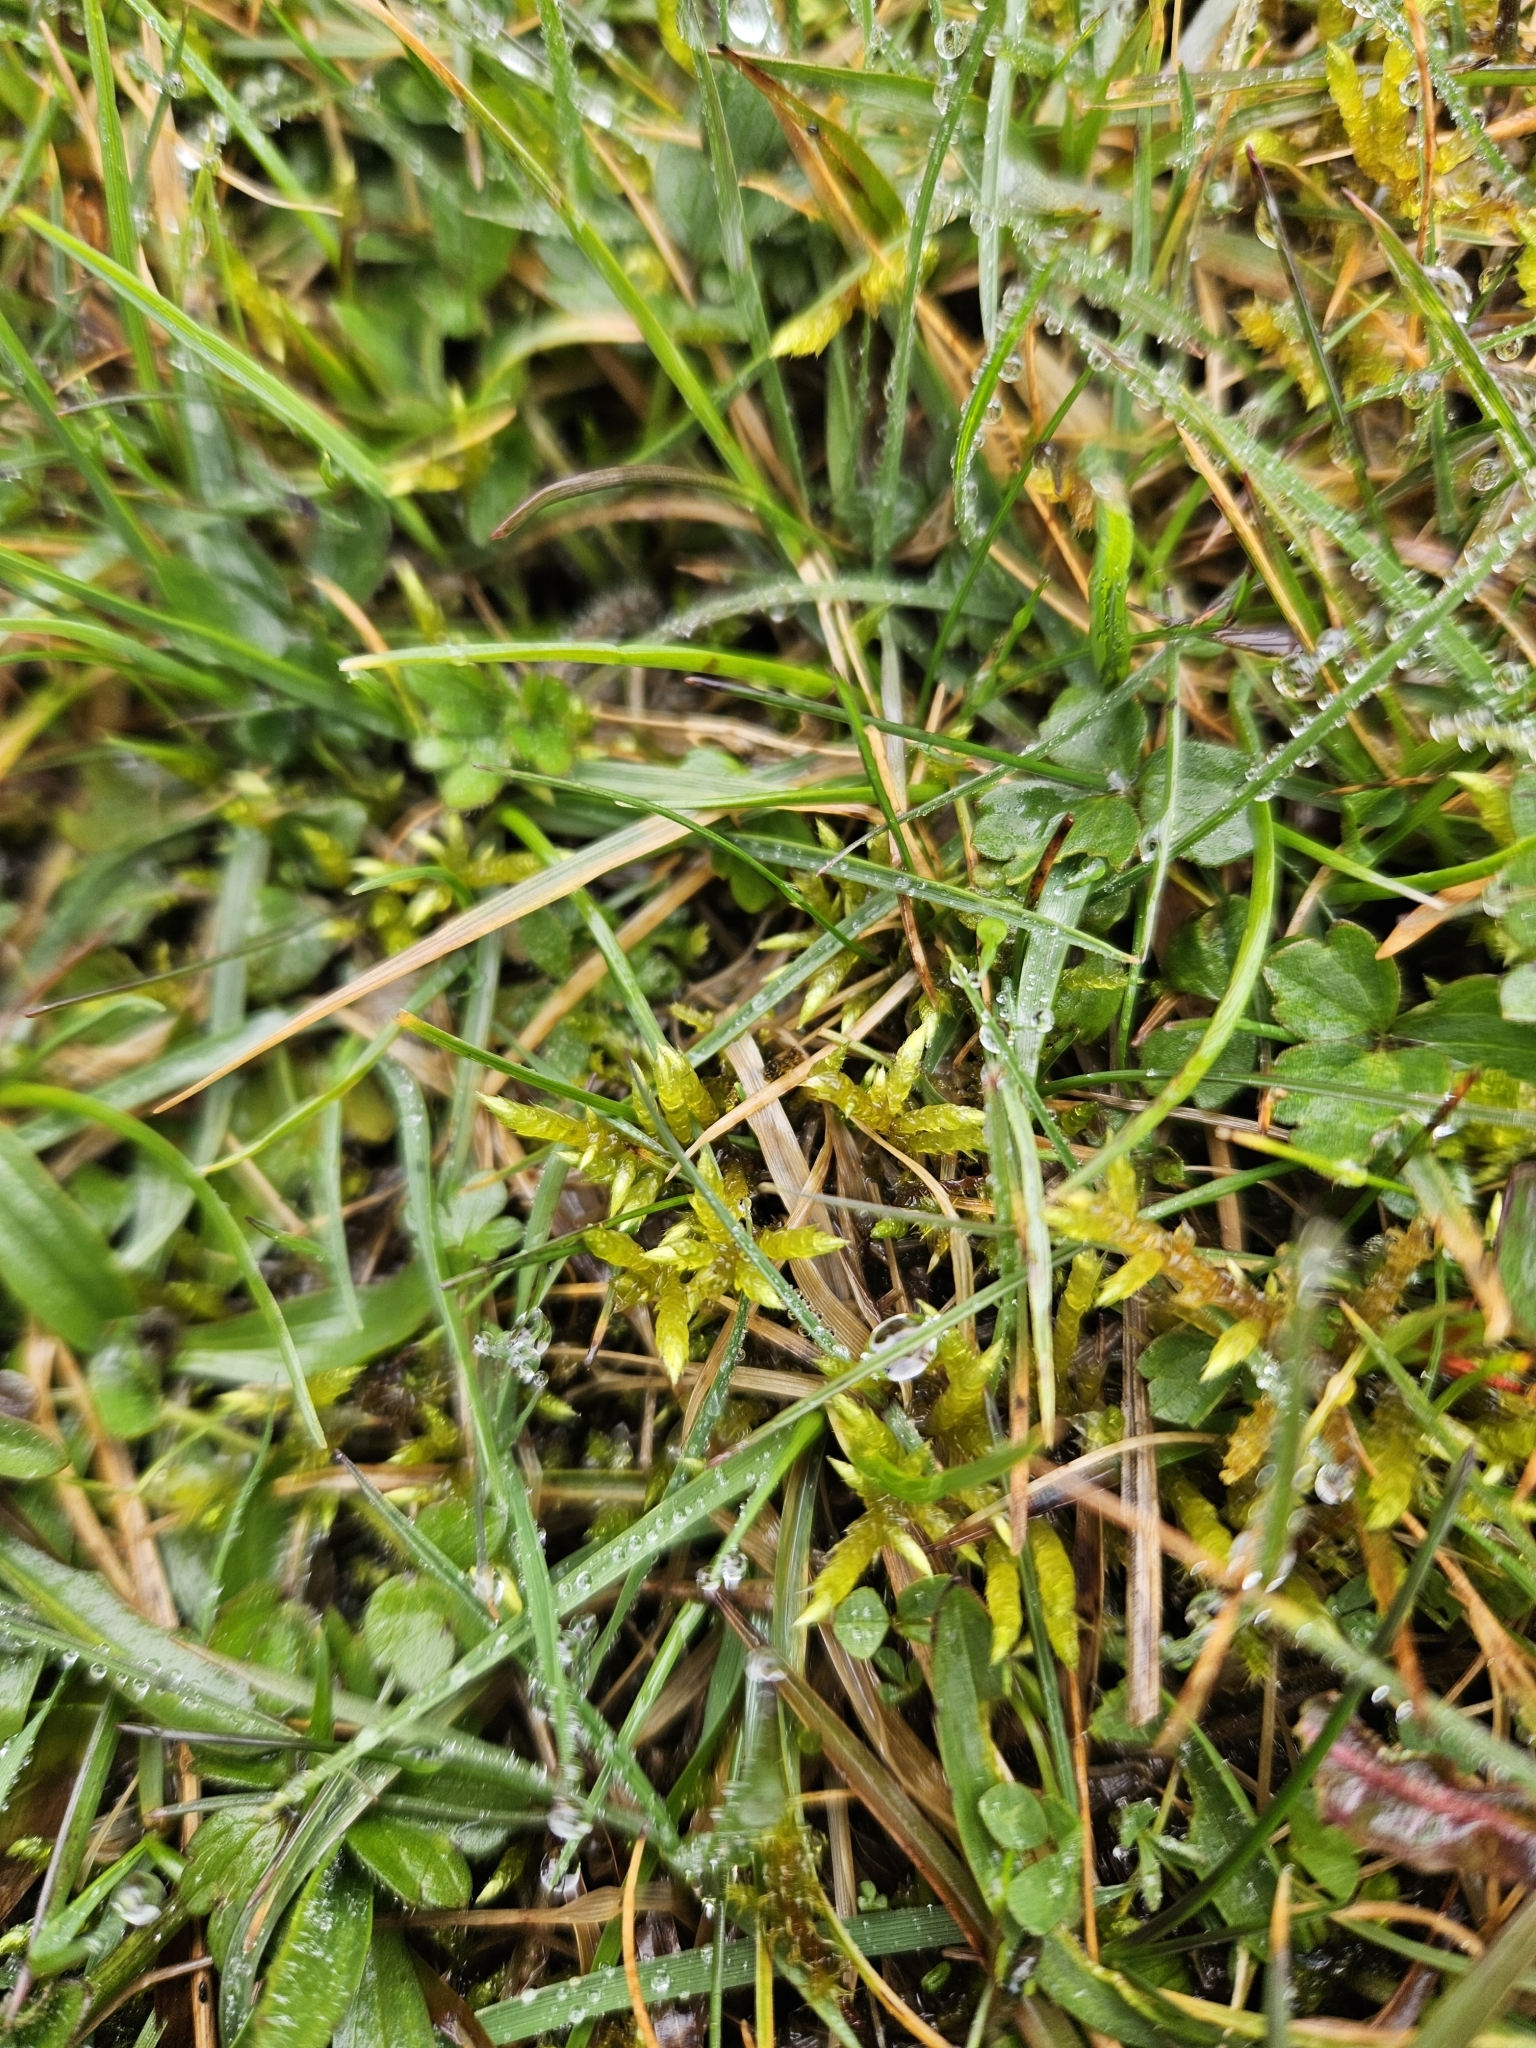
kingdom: Plantae
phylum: Bryophyta
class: Bryopsida
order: Hypnales
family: Brachytheciaceae
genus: Brachythecium
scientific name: Brachythecium rivulare
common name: River ragged moss
